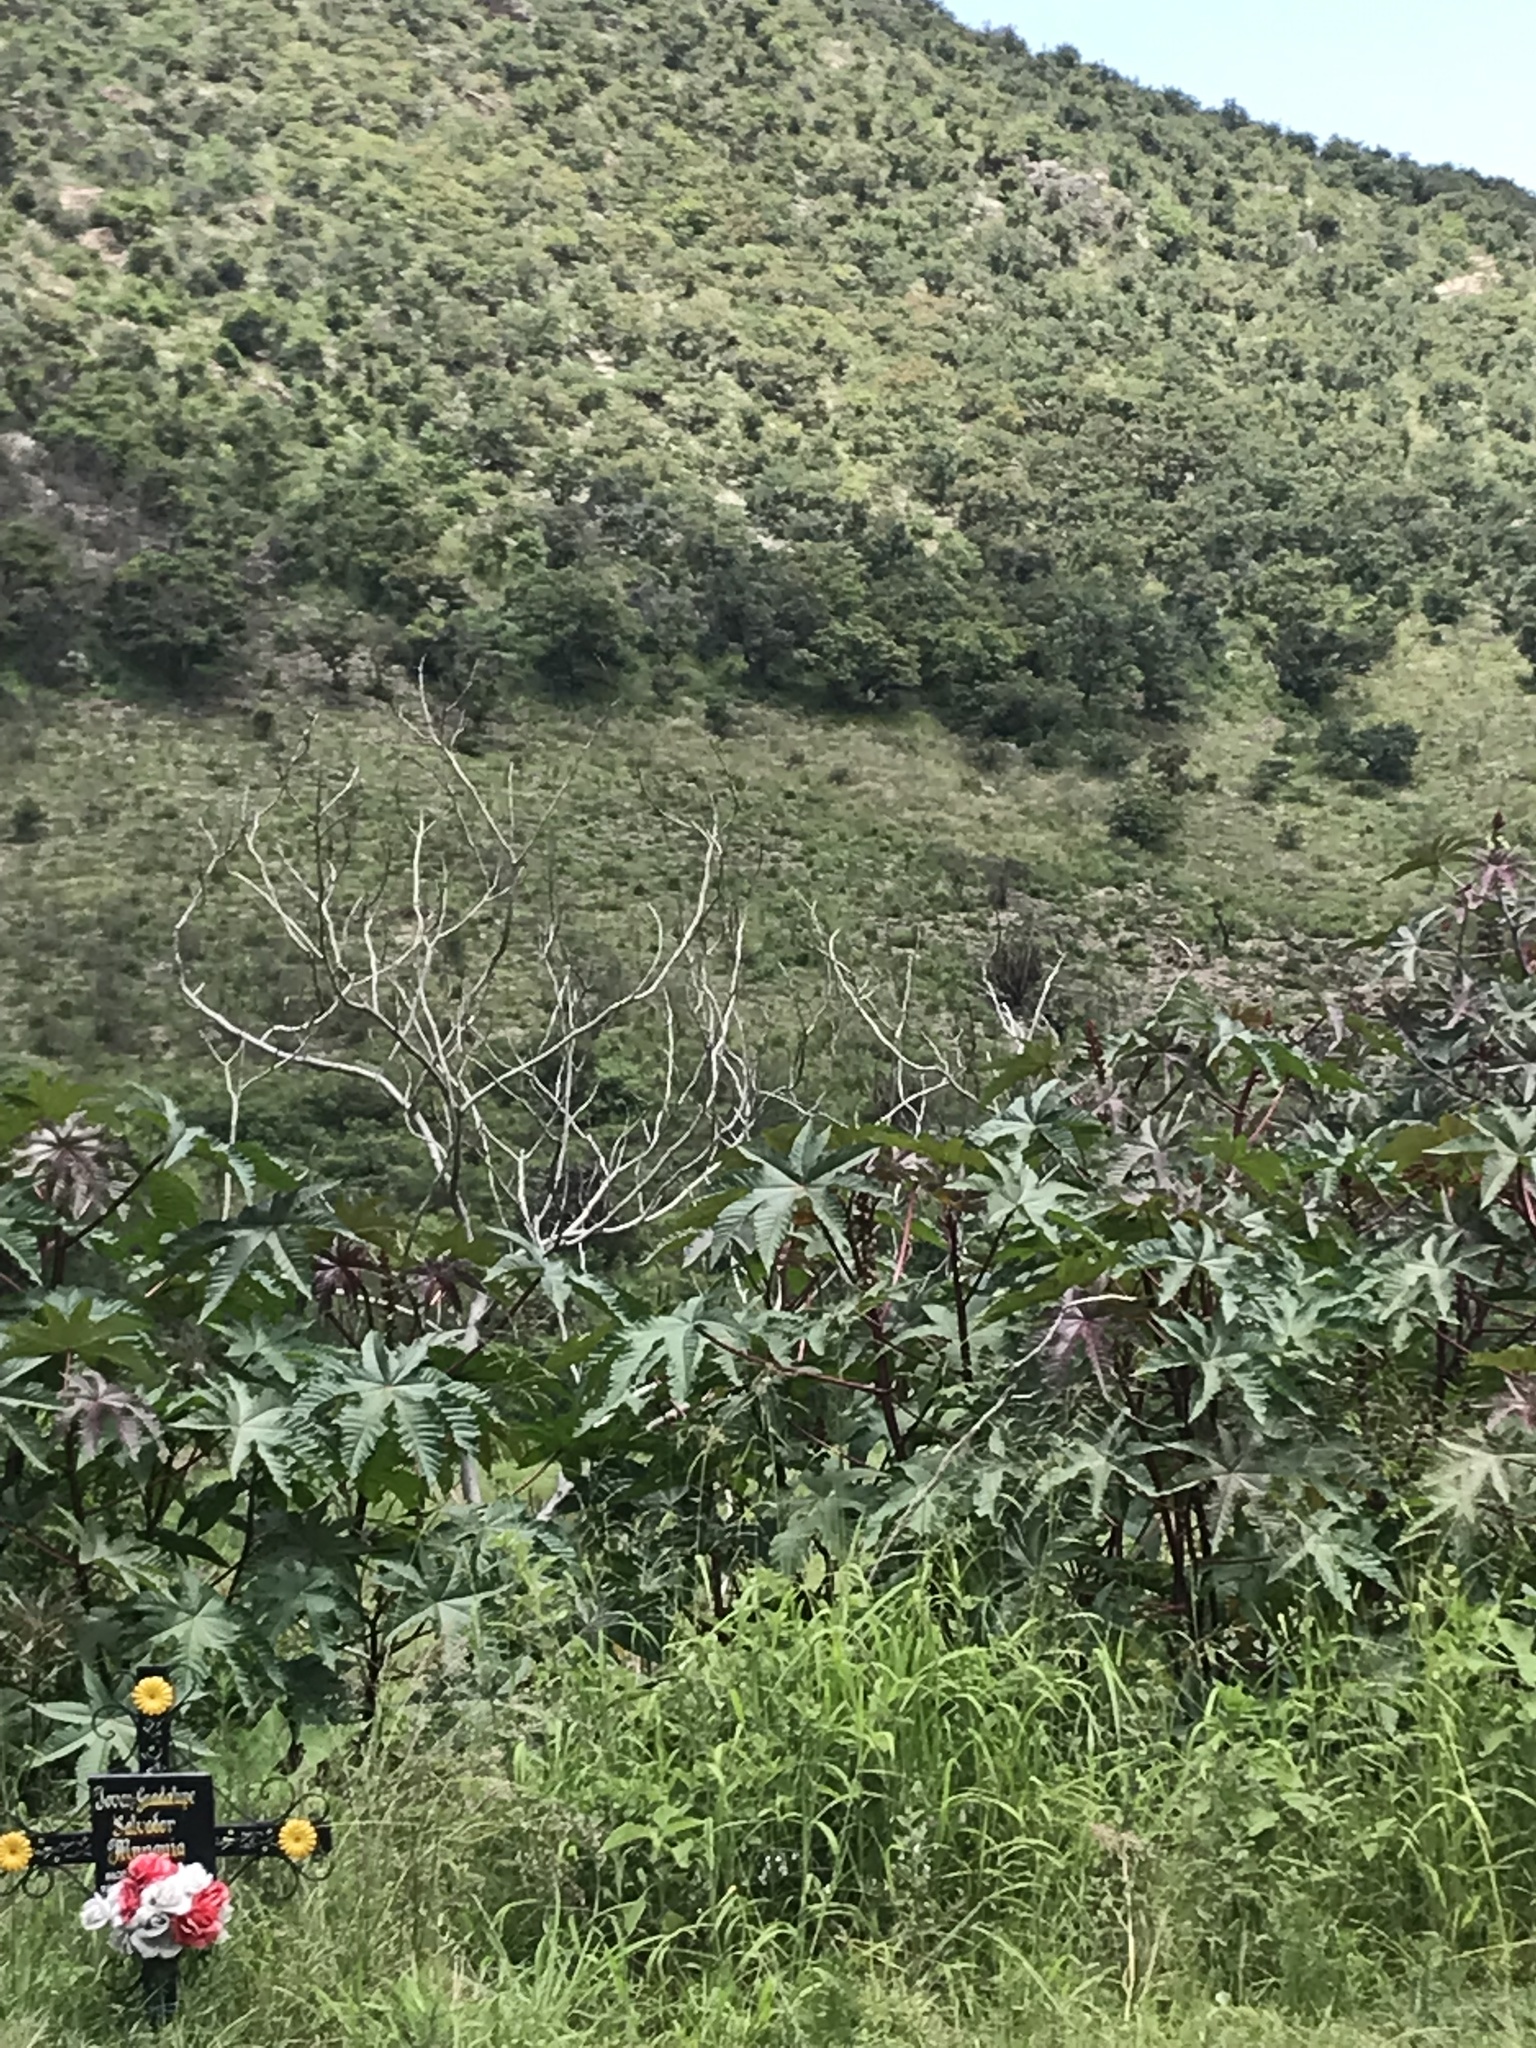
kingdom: Plantae
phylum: Tracheophyta
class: Magnoliopsida
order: Malpighiales
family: Euphorbiaceae
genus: Ricinus
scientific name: Ricinus communis
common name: Castor-oil-plant
